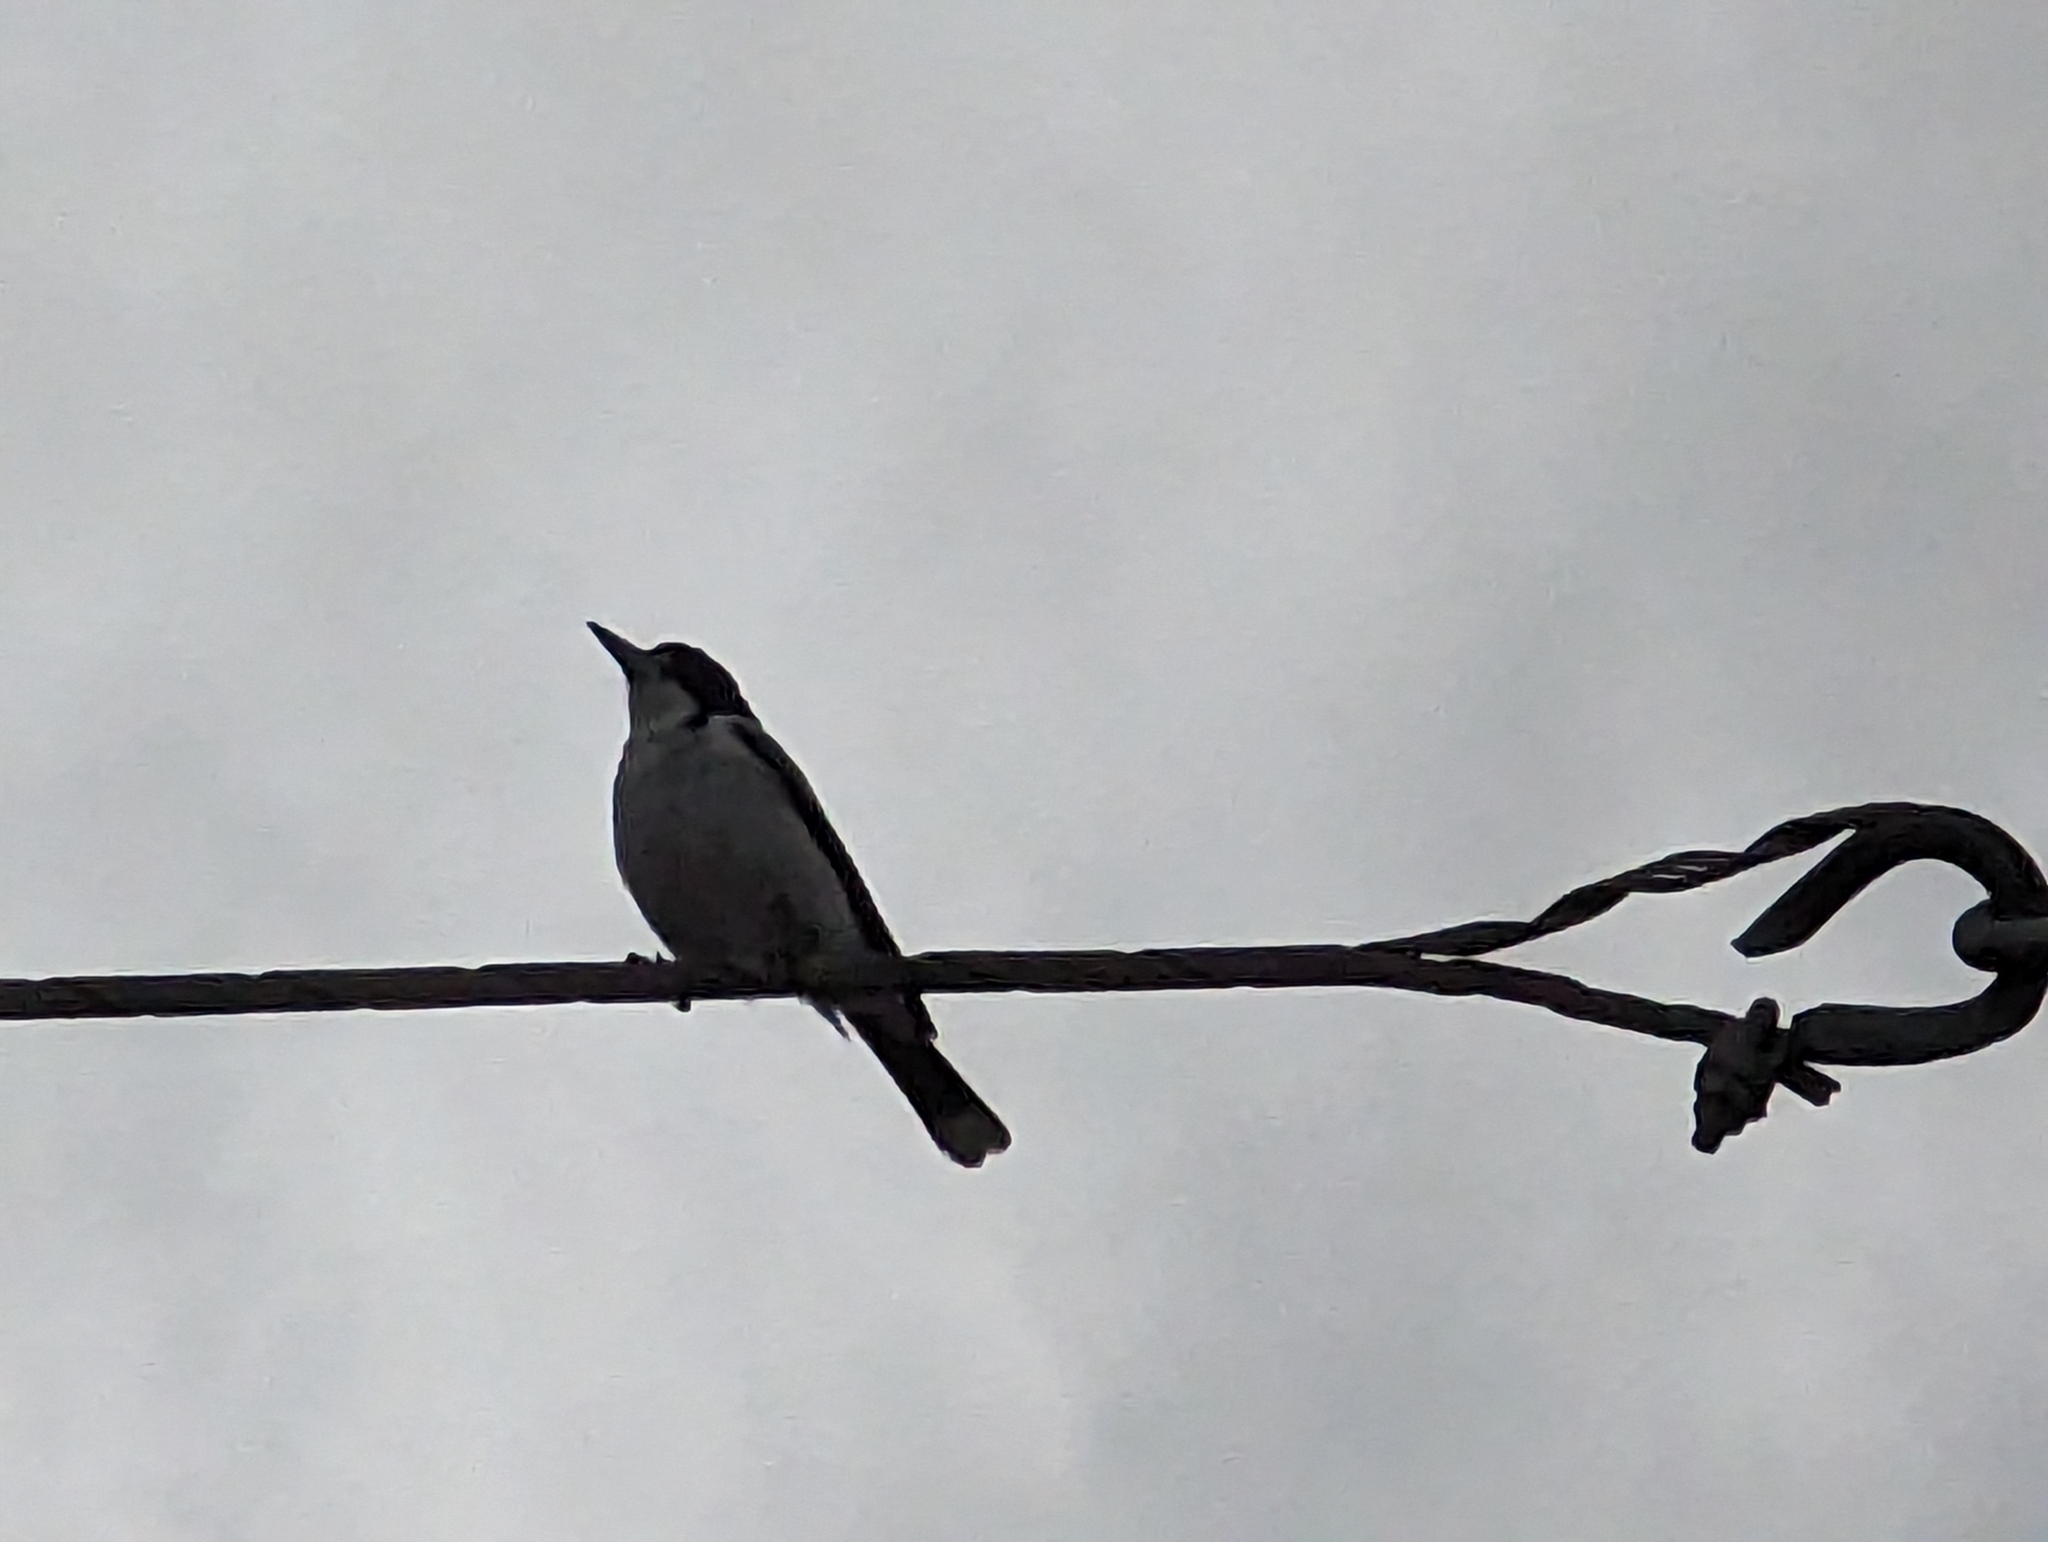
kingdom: Animalia
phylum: Chordata
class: Aves
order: Passeriformes
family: Cracticidae
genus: Cracticus
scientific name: Cracticus torquatus
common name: Grey butcherbird
